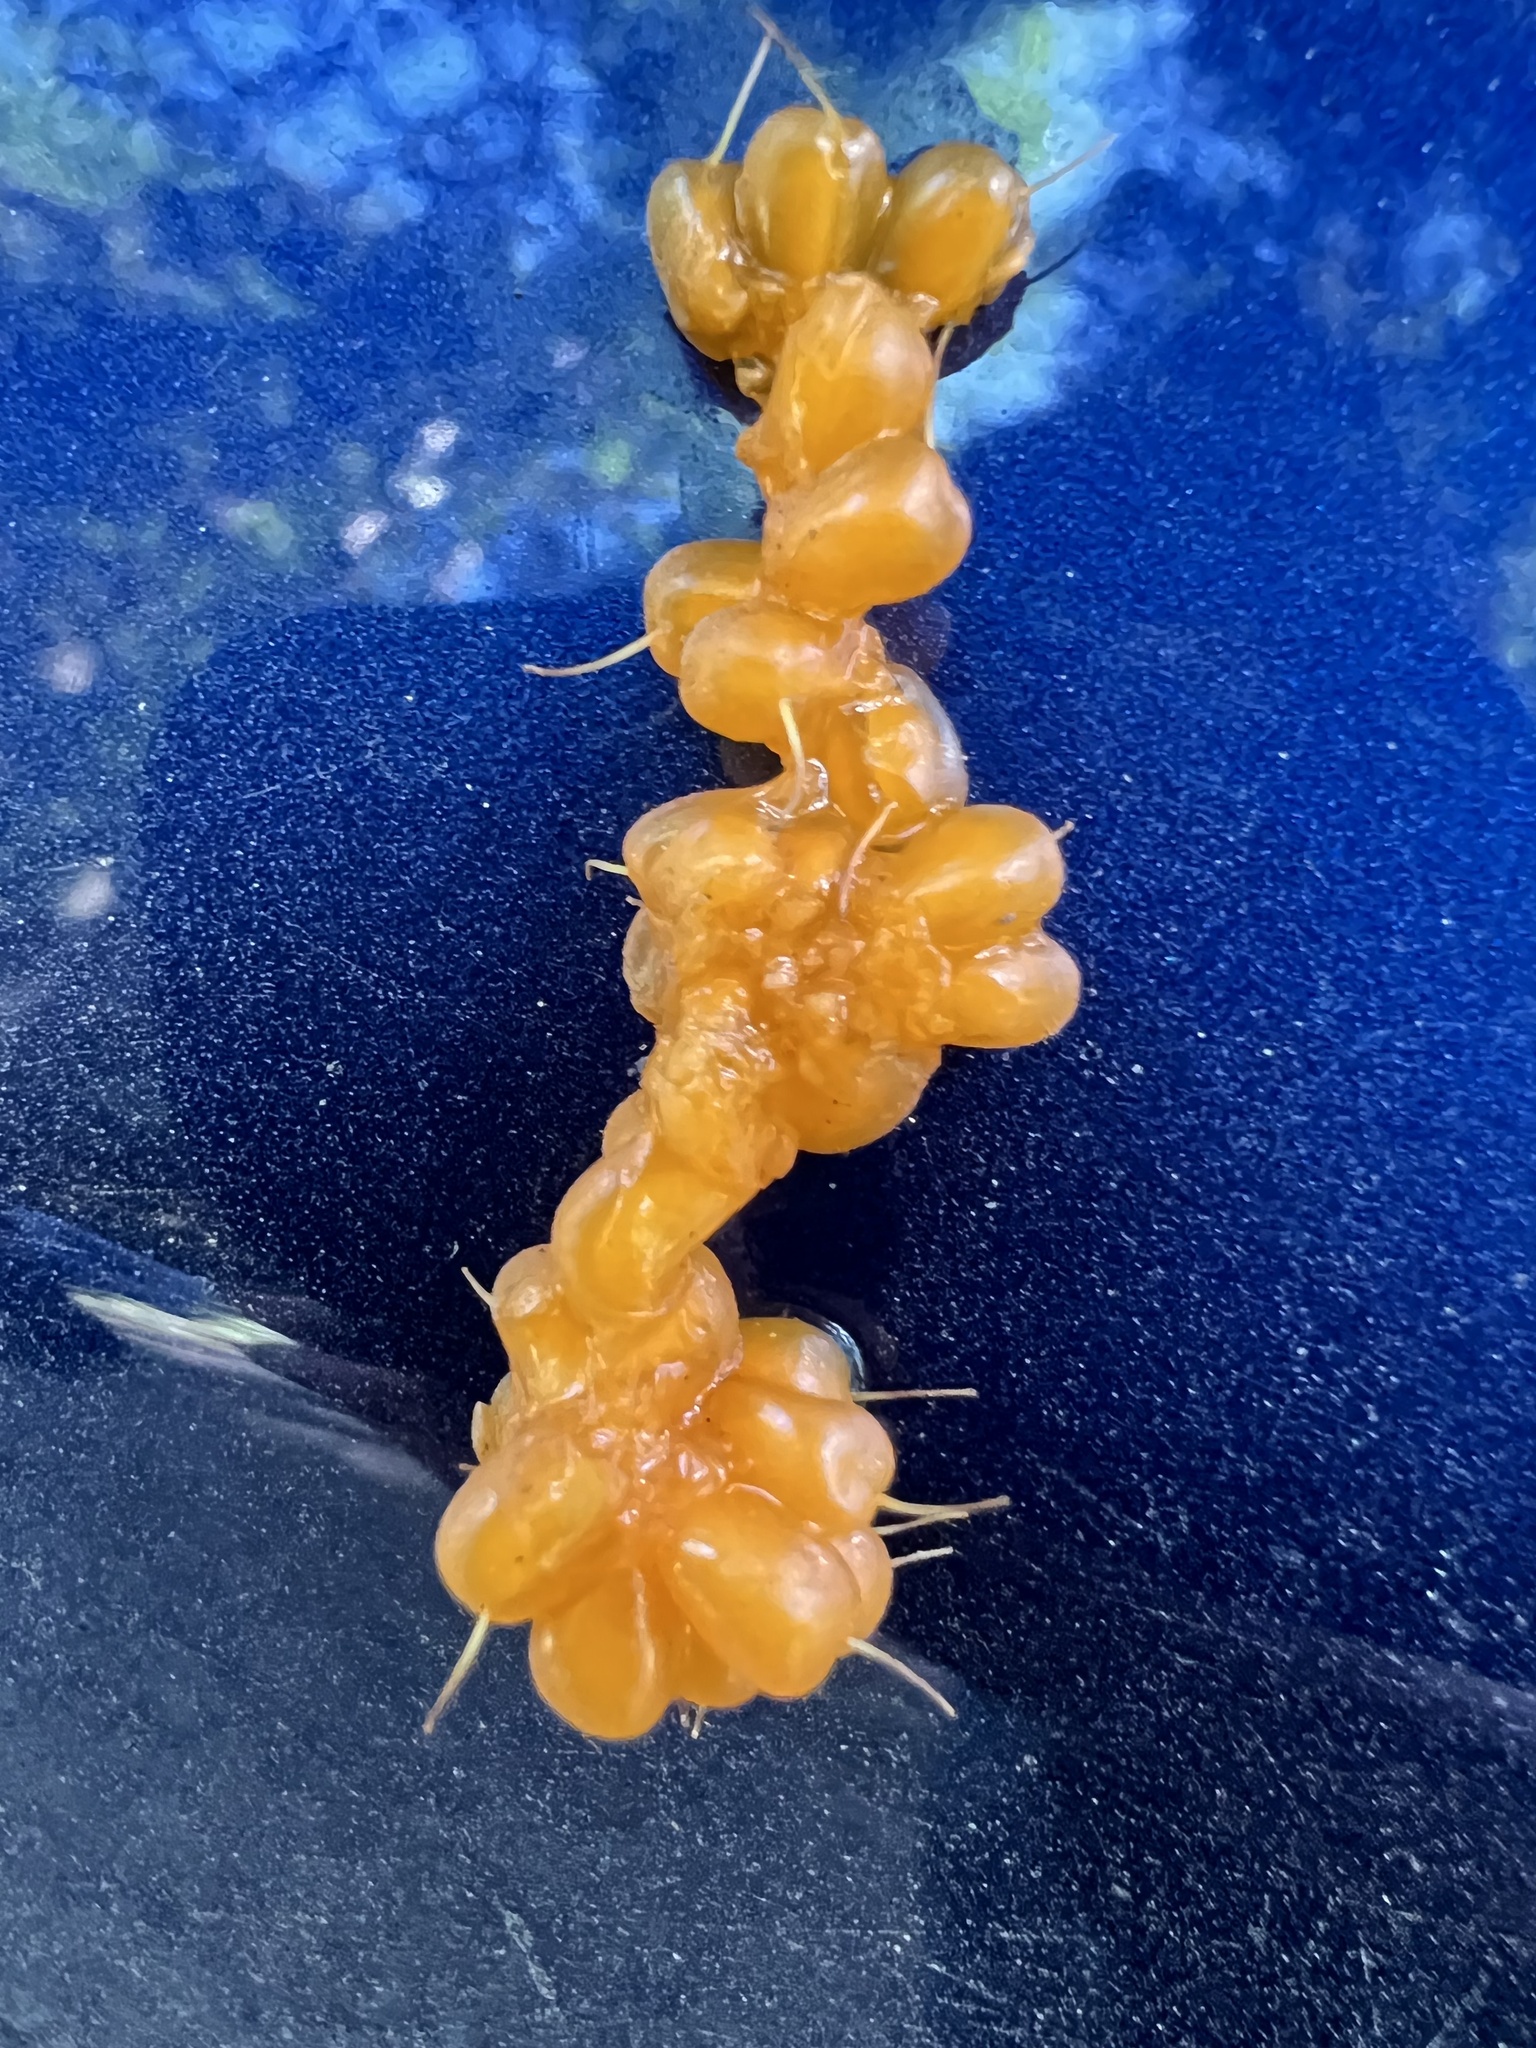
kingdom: Plantae
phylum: Tracheophyta
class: Magnoliopsida
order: Rosales
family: Rosaceae
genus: Rubus
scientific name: Rubus spectabilis
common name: Salmonberry
